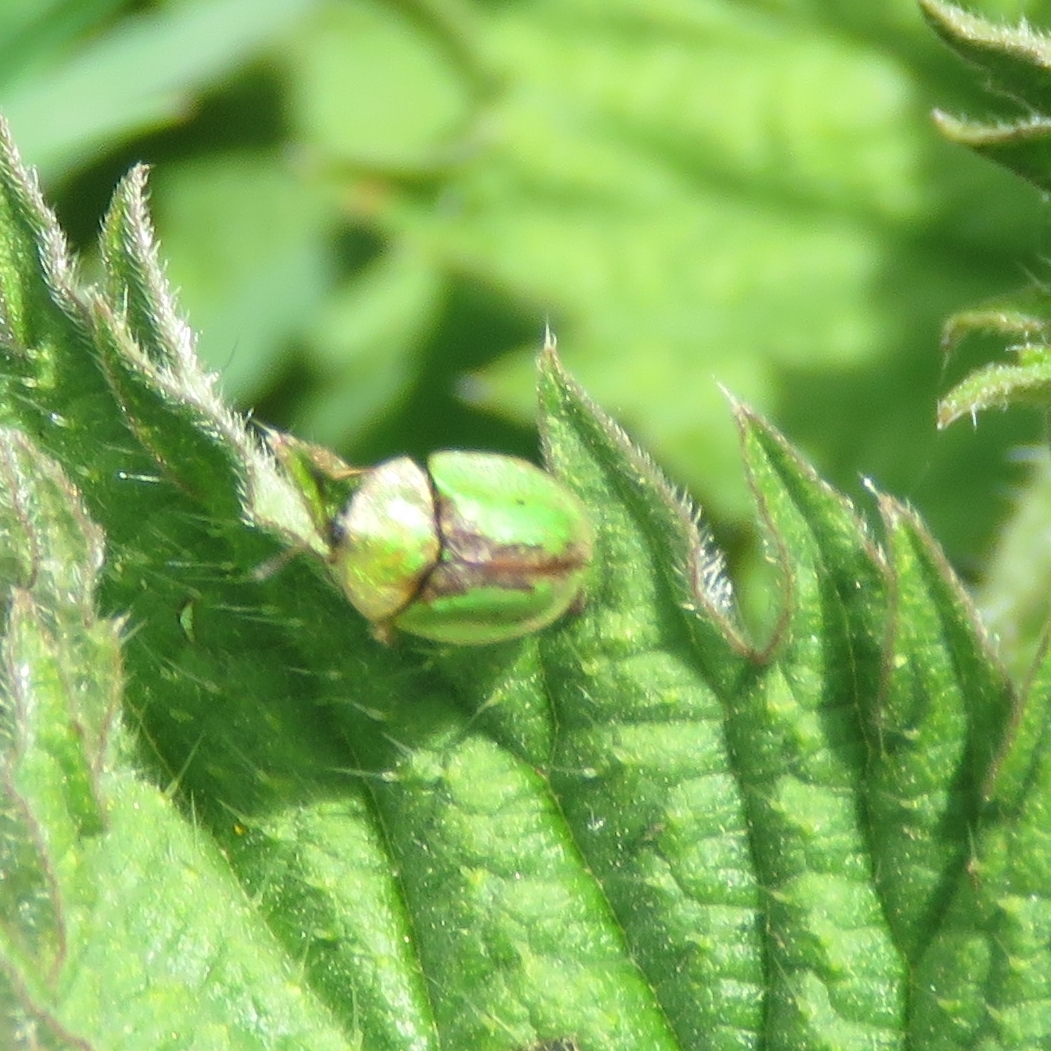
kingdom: Animalia
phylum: Arthropoda
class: Insecta
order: Coleoptera
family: Chrysomelidae
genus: Cassida
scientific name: Cassida vibex
